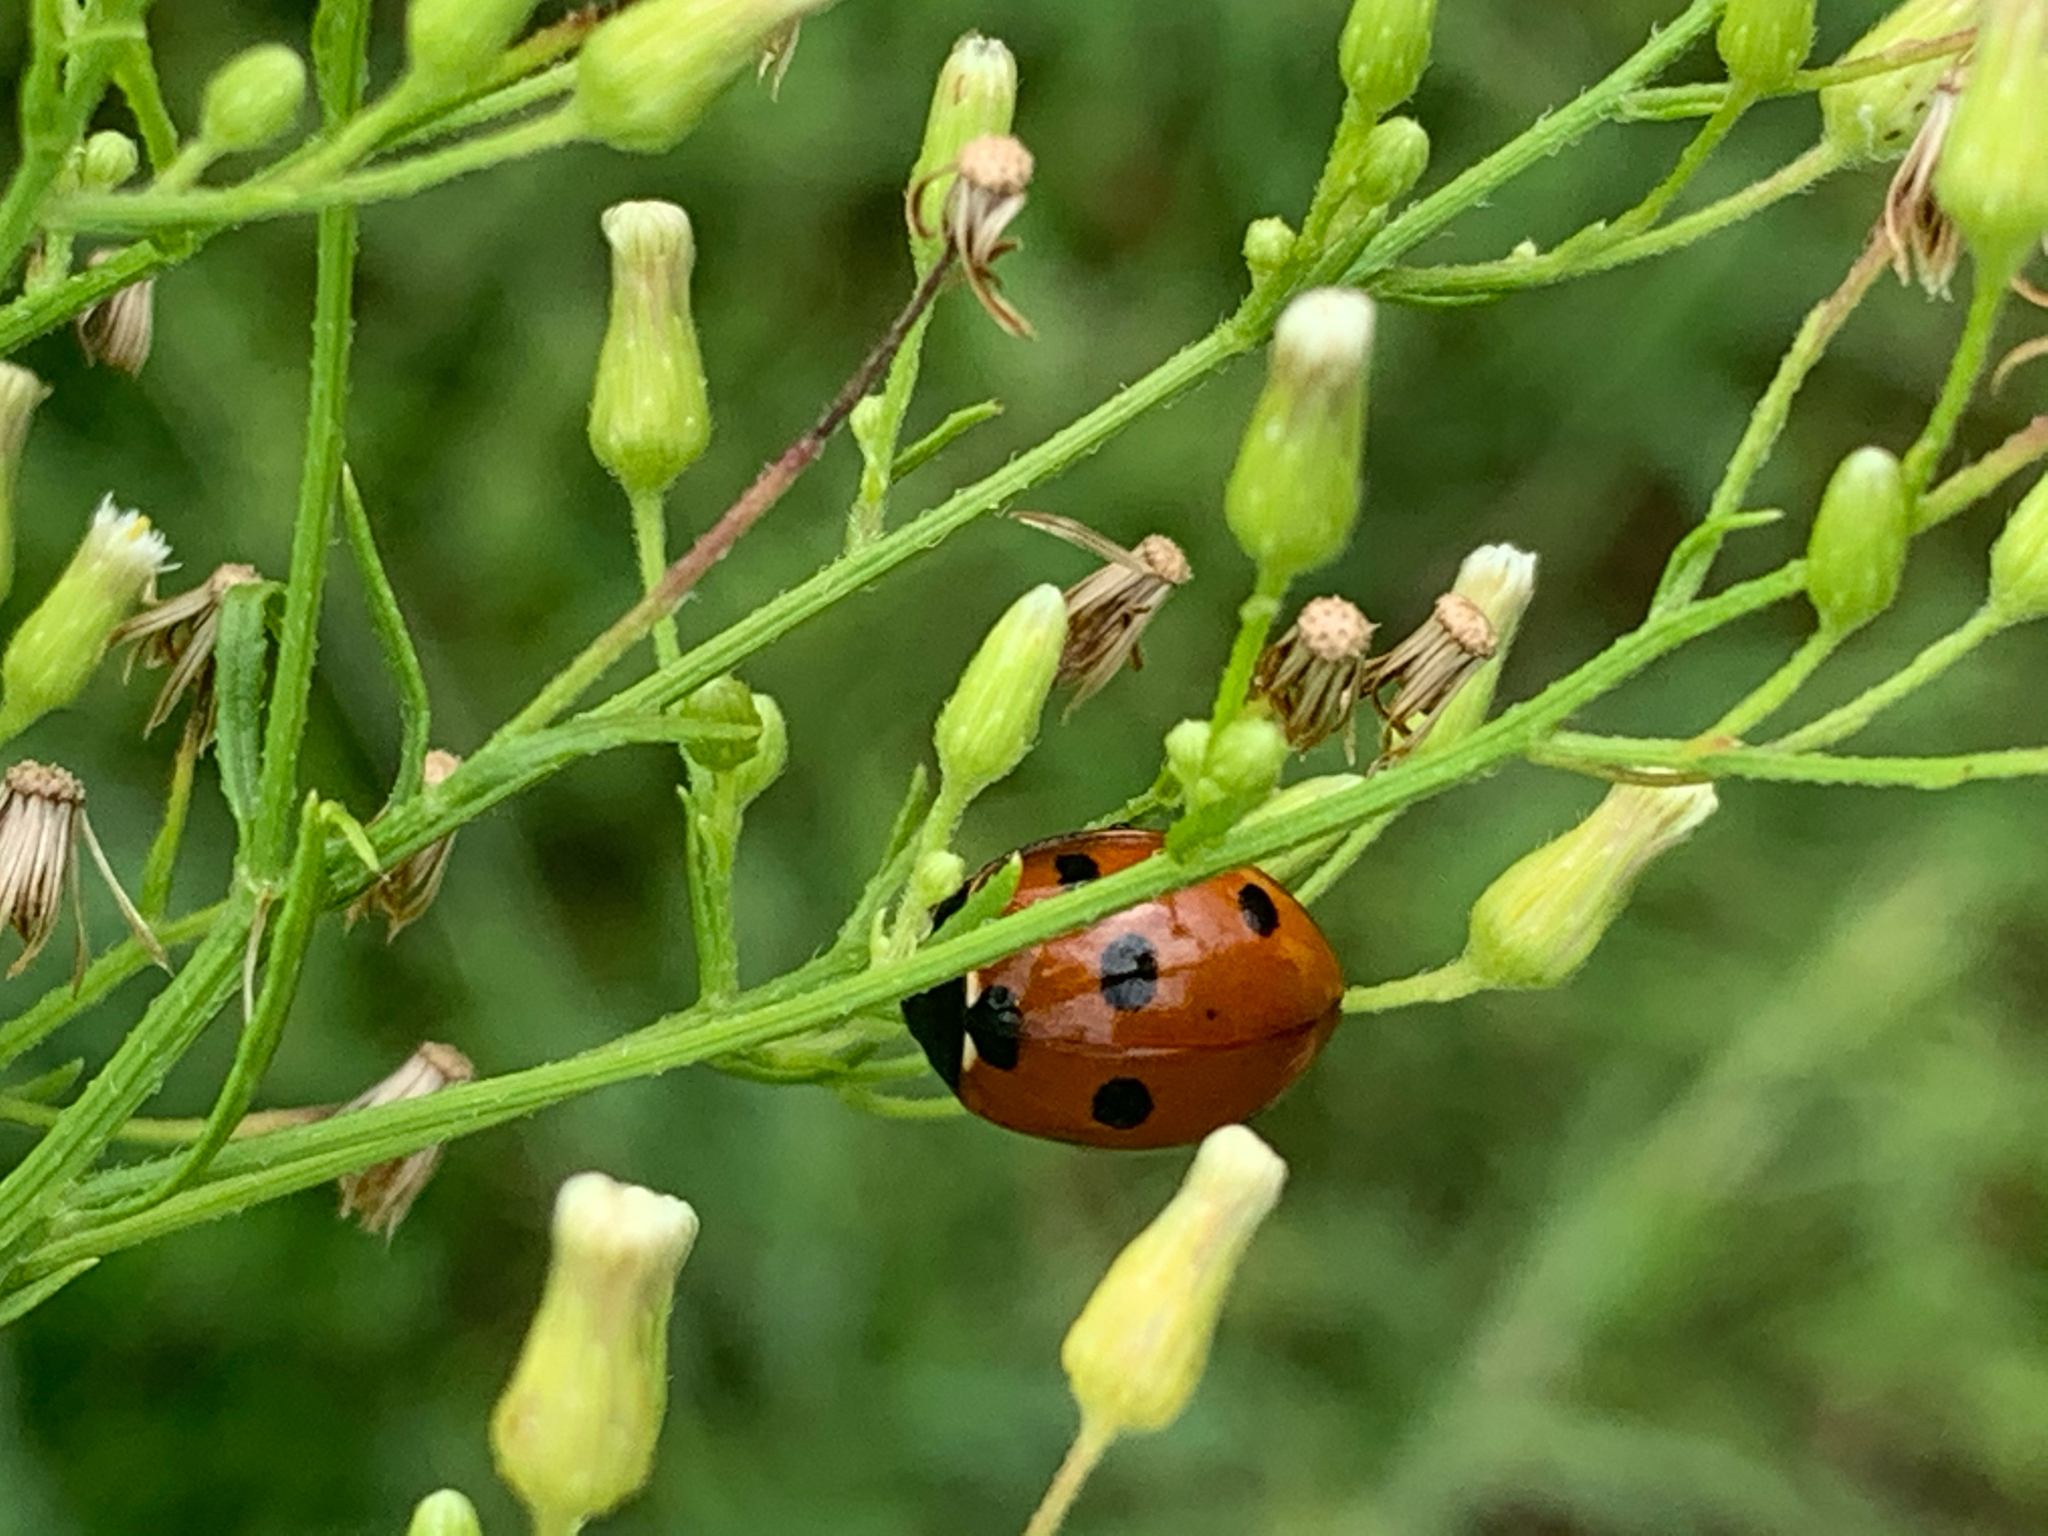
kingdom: Animalia
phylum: Arthropoda
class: Insecta
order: Coleoptera
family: Coccinellidae
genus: Coccinella
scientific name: Coccinella septempunctata
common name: Sevenspotted lady beetle
